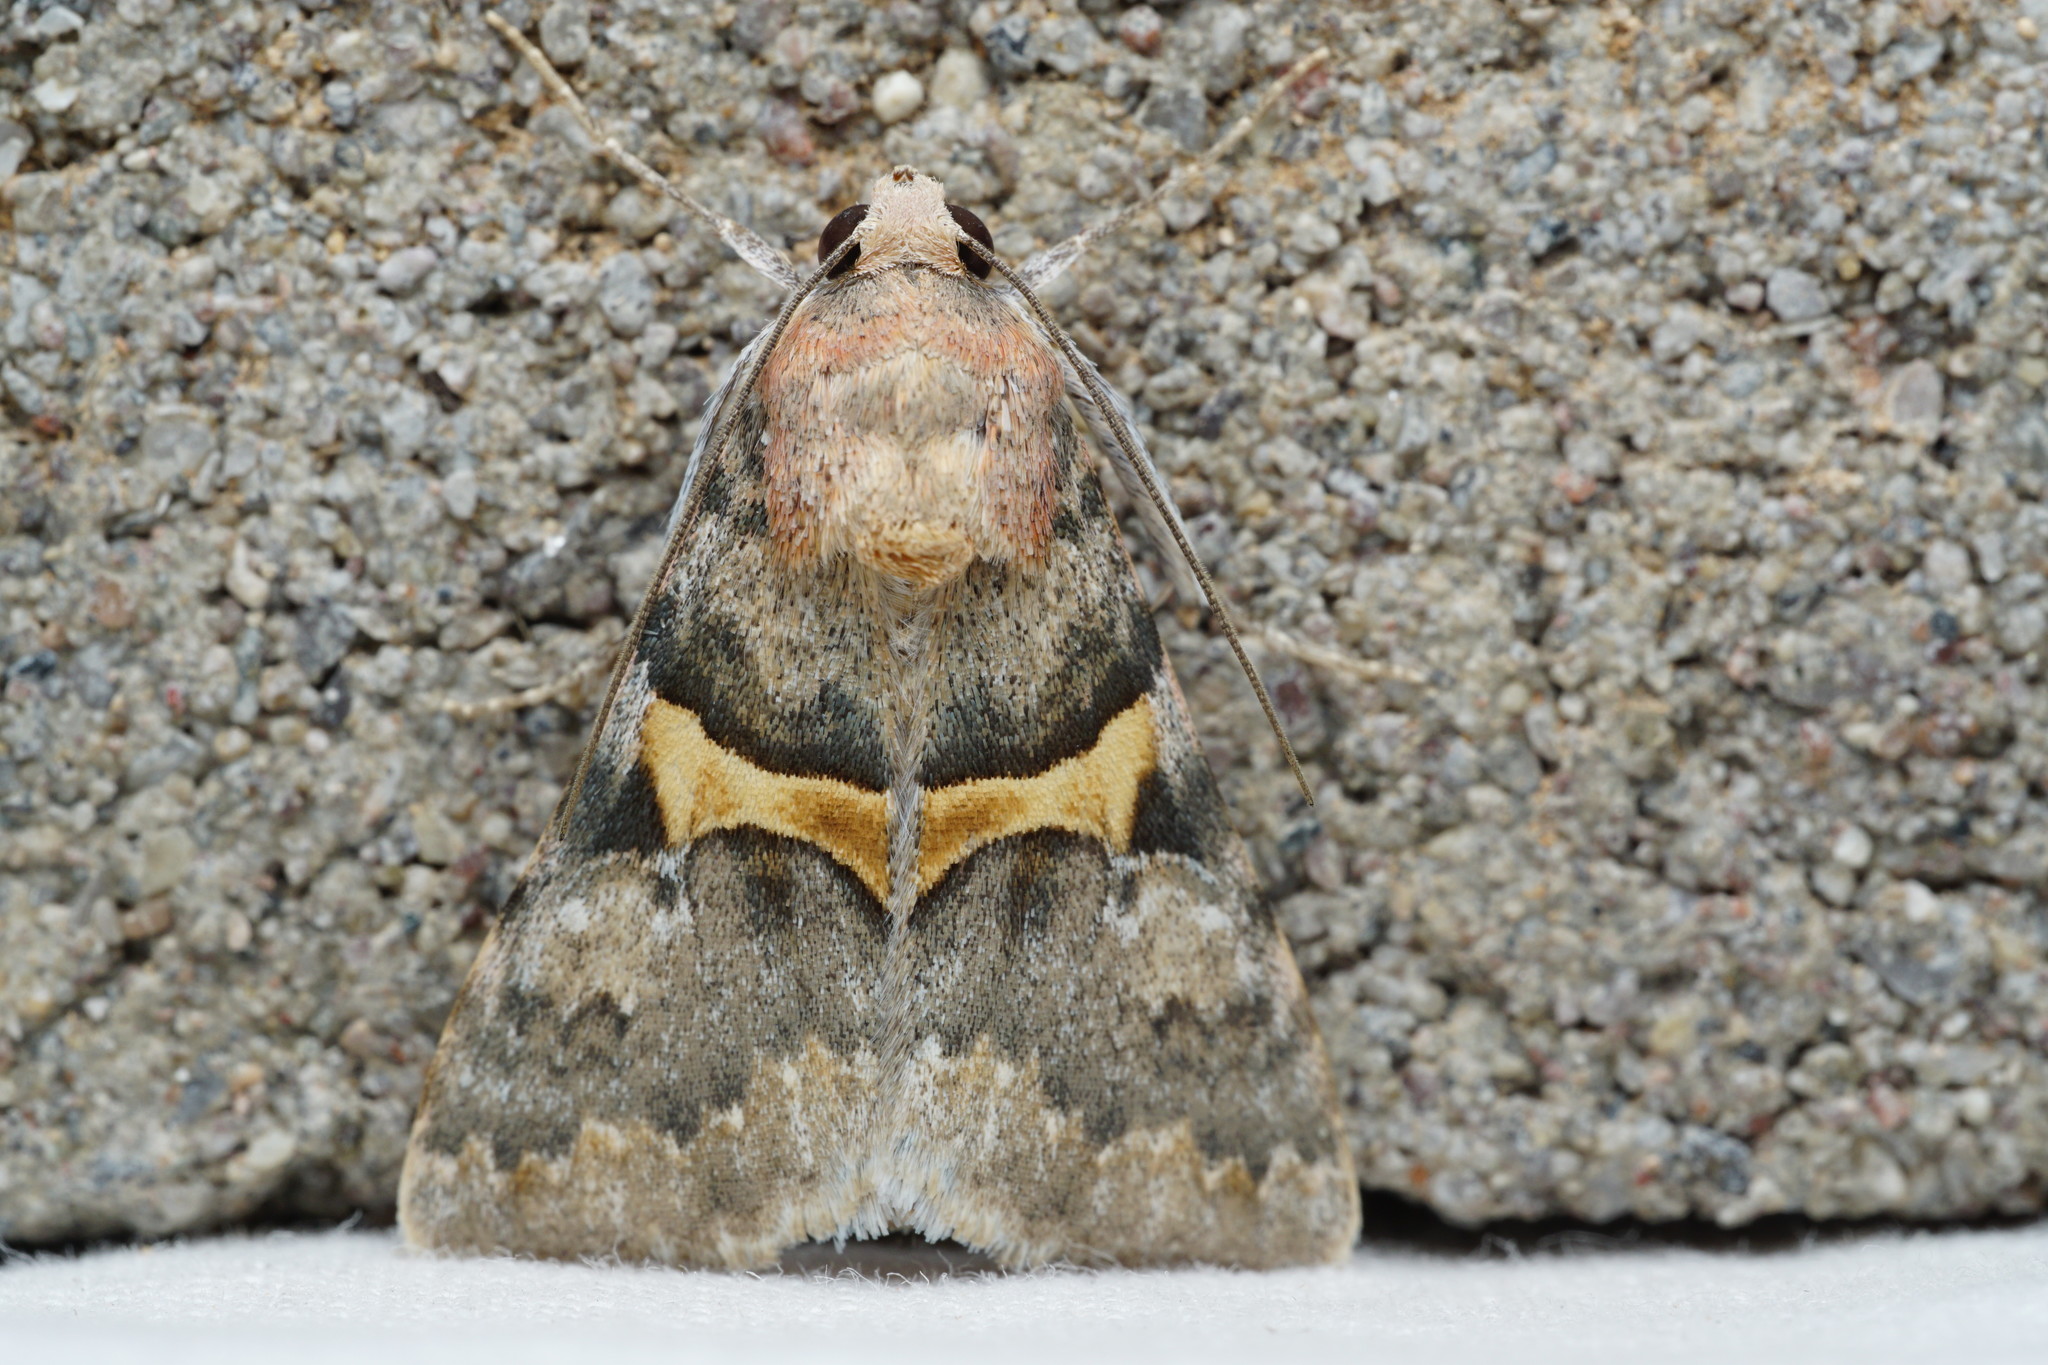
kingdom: Animalia
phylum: Arthropoda
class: Insecta
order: Lepidoptera
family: Erebidae
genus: Melipotis
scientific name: Melipotis jucunda
